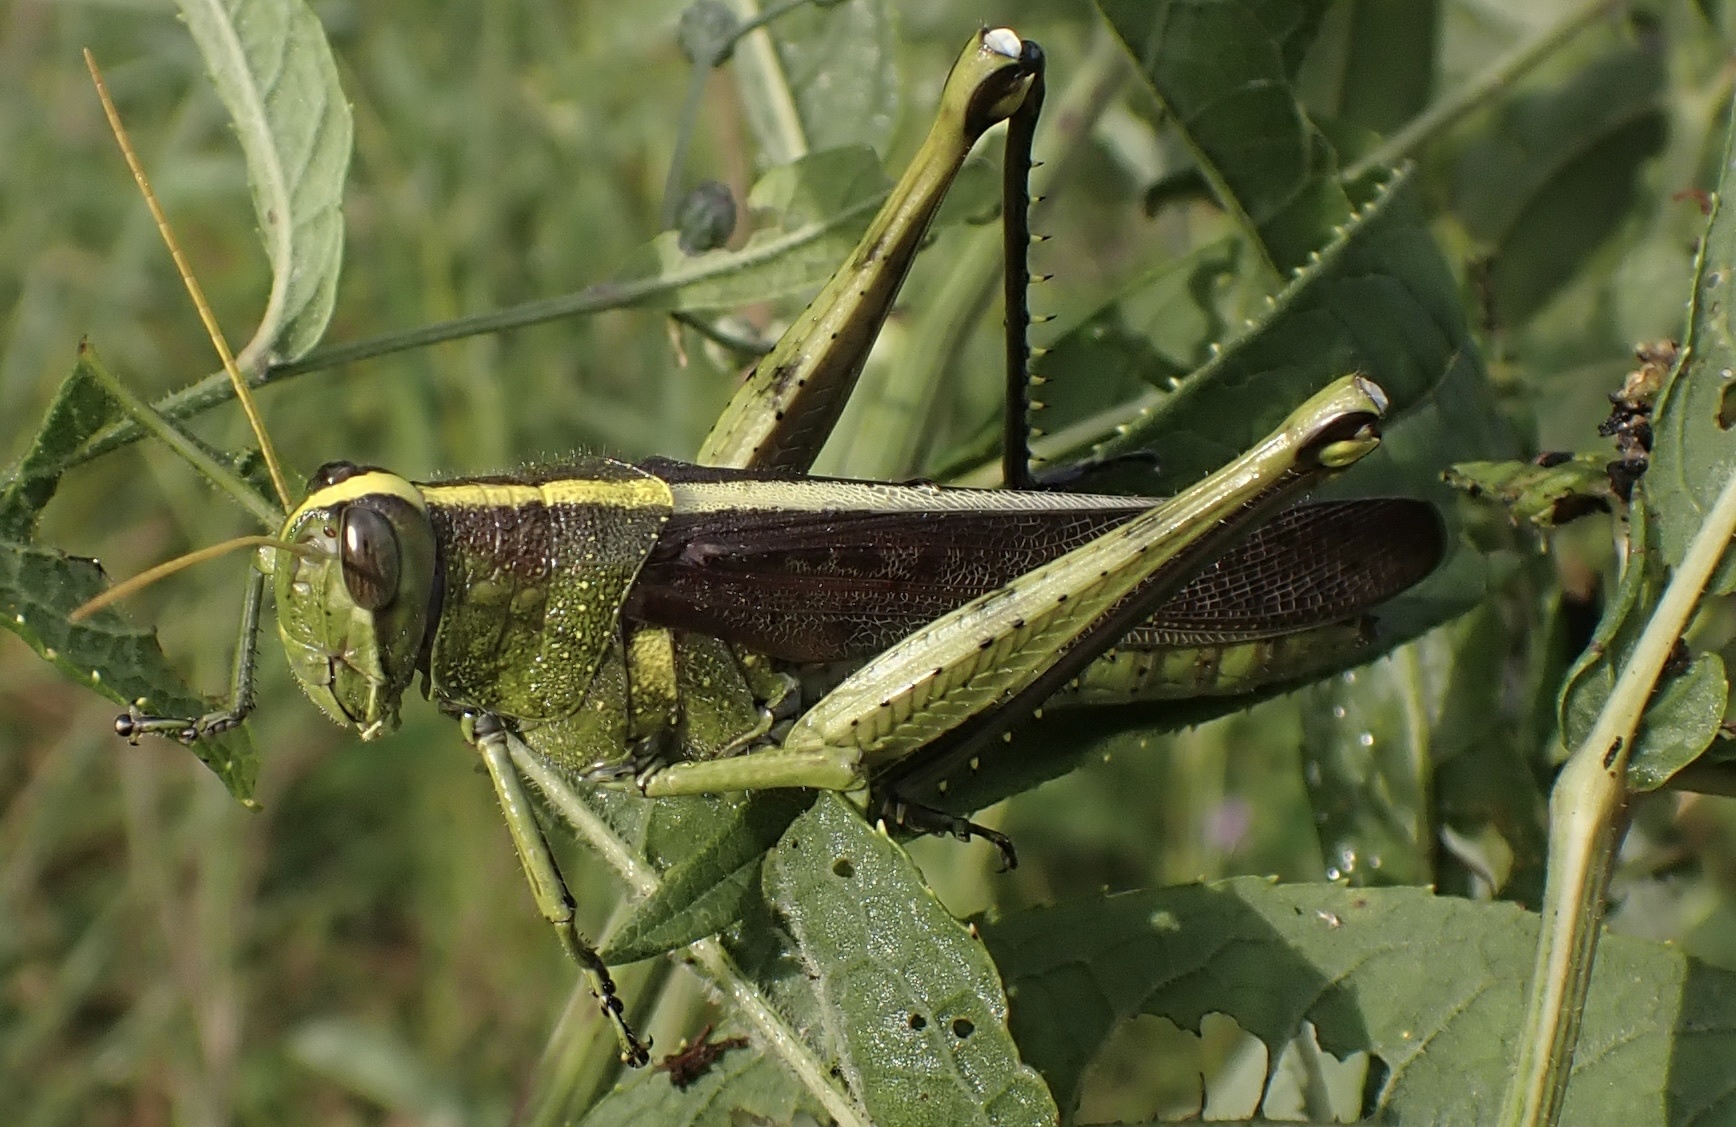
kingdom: Animalia
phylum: Arthropoda
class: Insecta
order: Orthoptera
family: Acrididae
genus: Schistocerca
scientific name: Schistocerca obscura
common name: Obscure bird grasshopper
